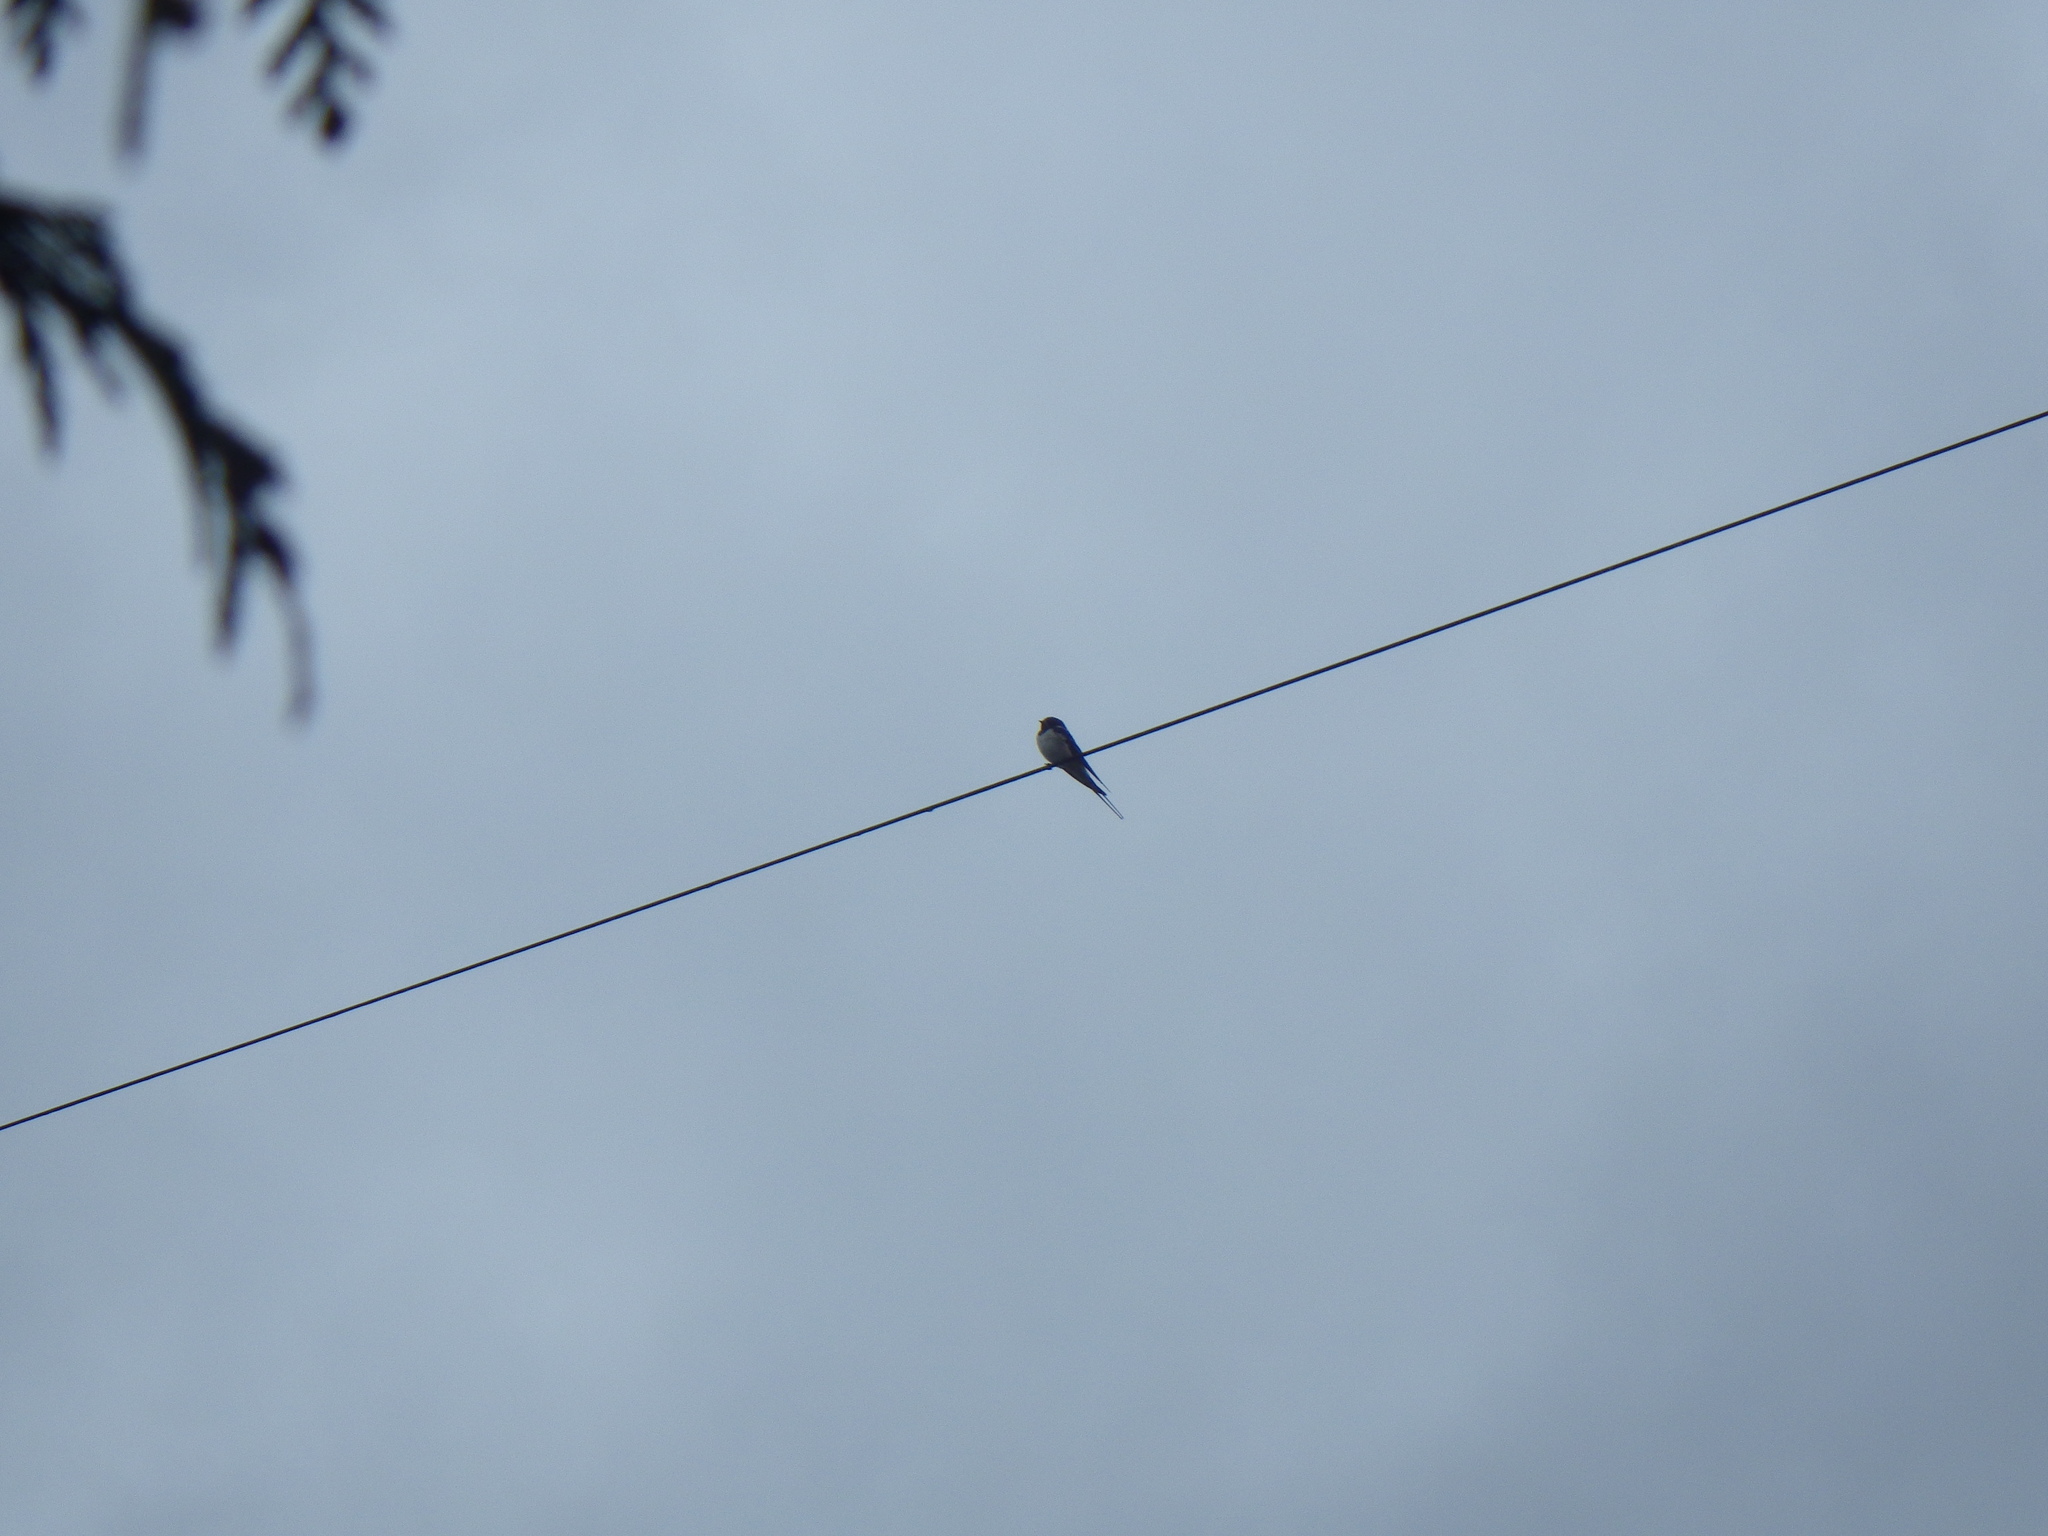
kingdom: Animalia
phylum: Chordata
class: Aves
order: Passeriformes
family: Hirundinidae
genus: Hirundo
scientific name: Hirundo rustica
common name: Barn swallow
